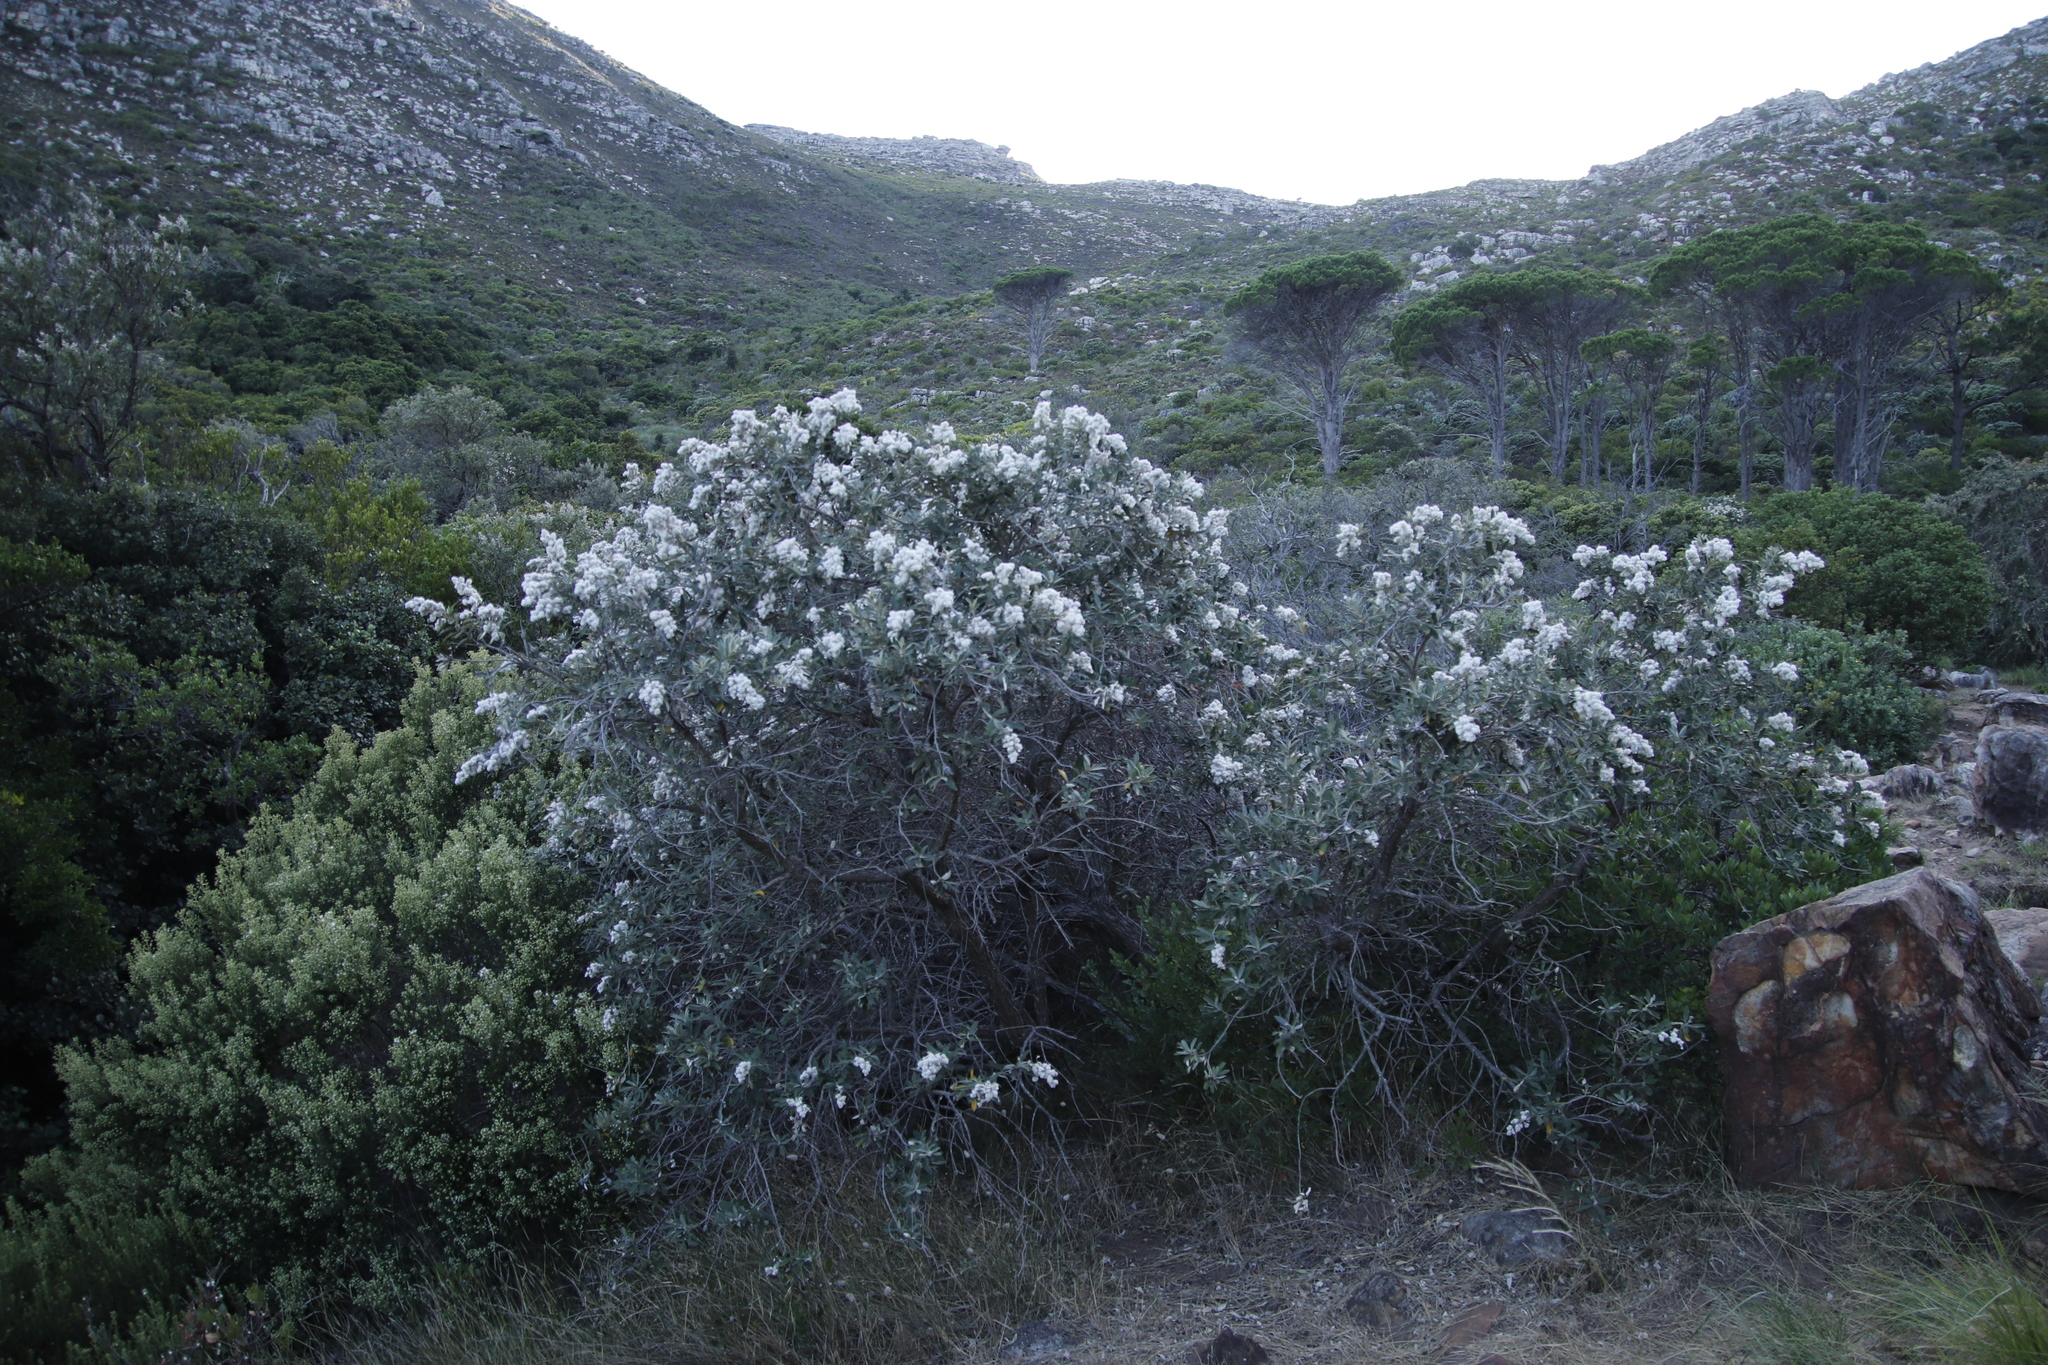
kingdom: Plantae
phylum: Tracheophyta
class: Magnoliopsida
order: Asterales
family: Asteraceae
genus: Tarchonanthus
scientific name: Tarchonanthus littoralis
